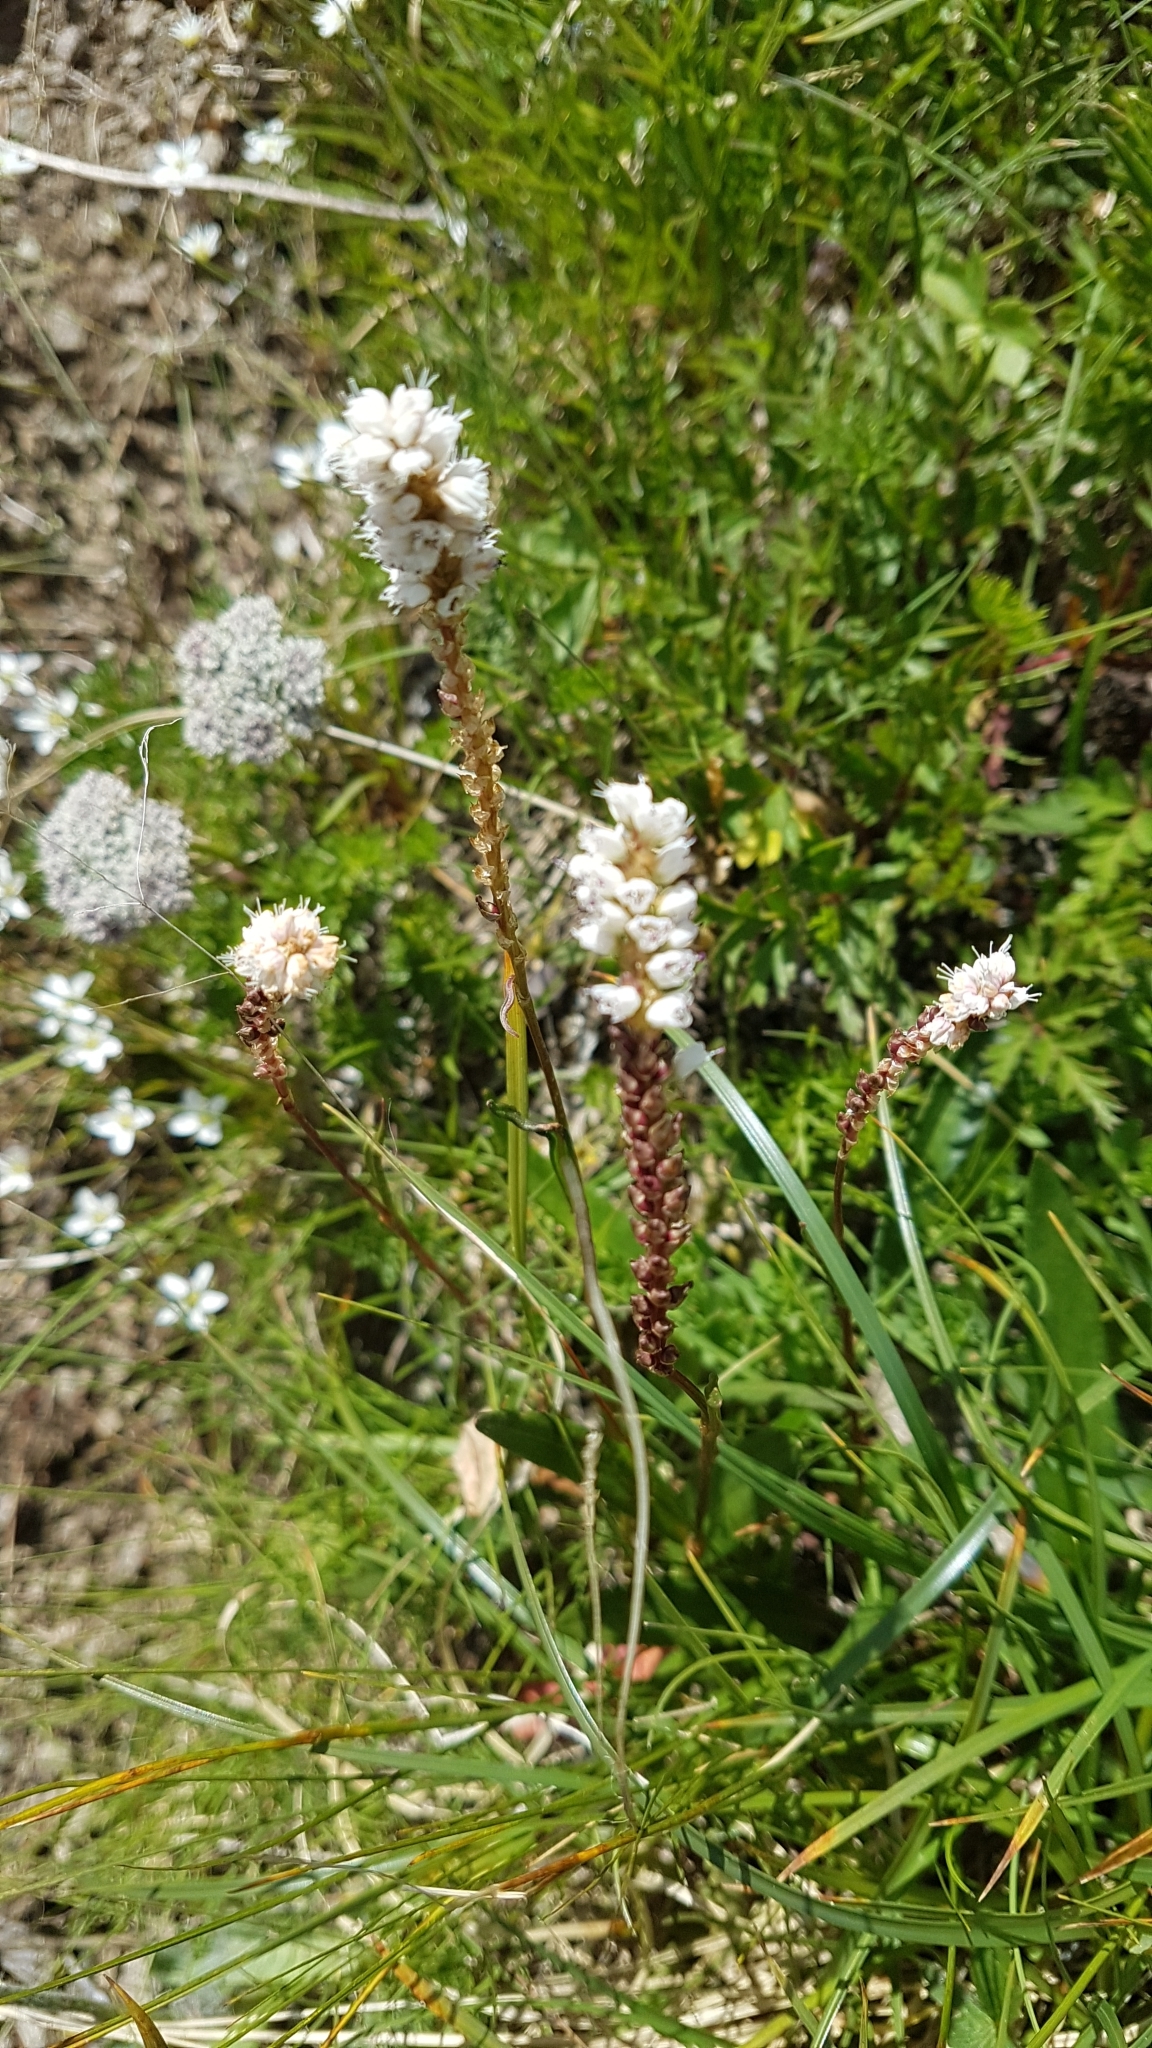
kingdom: Plantae
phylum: Tracheophyta
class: Magnoliopsida
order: Caryophyllales
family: Polygonaceae
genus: Bistorta
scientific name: Bistorta vivipara
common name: Alpine bistort
